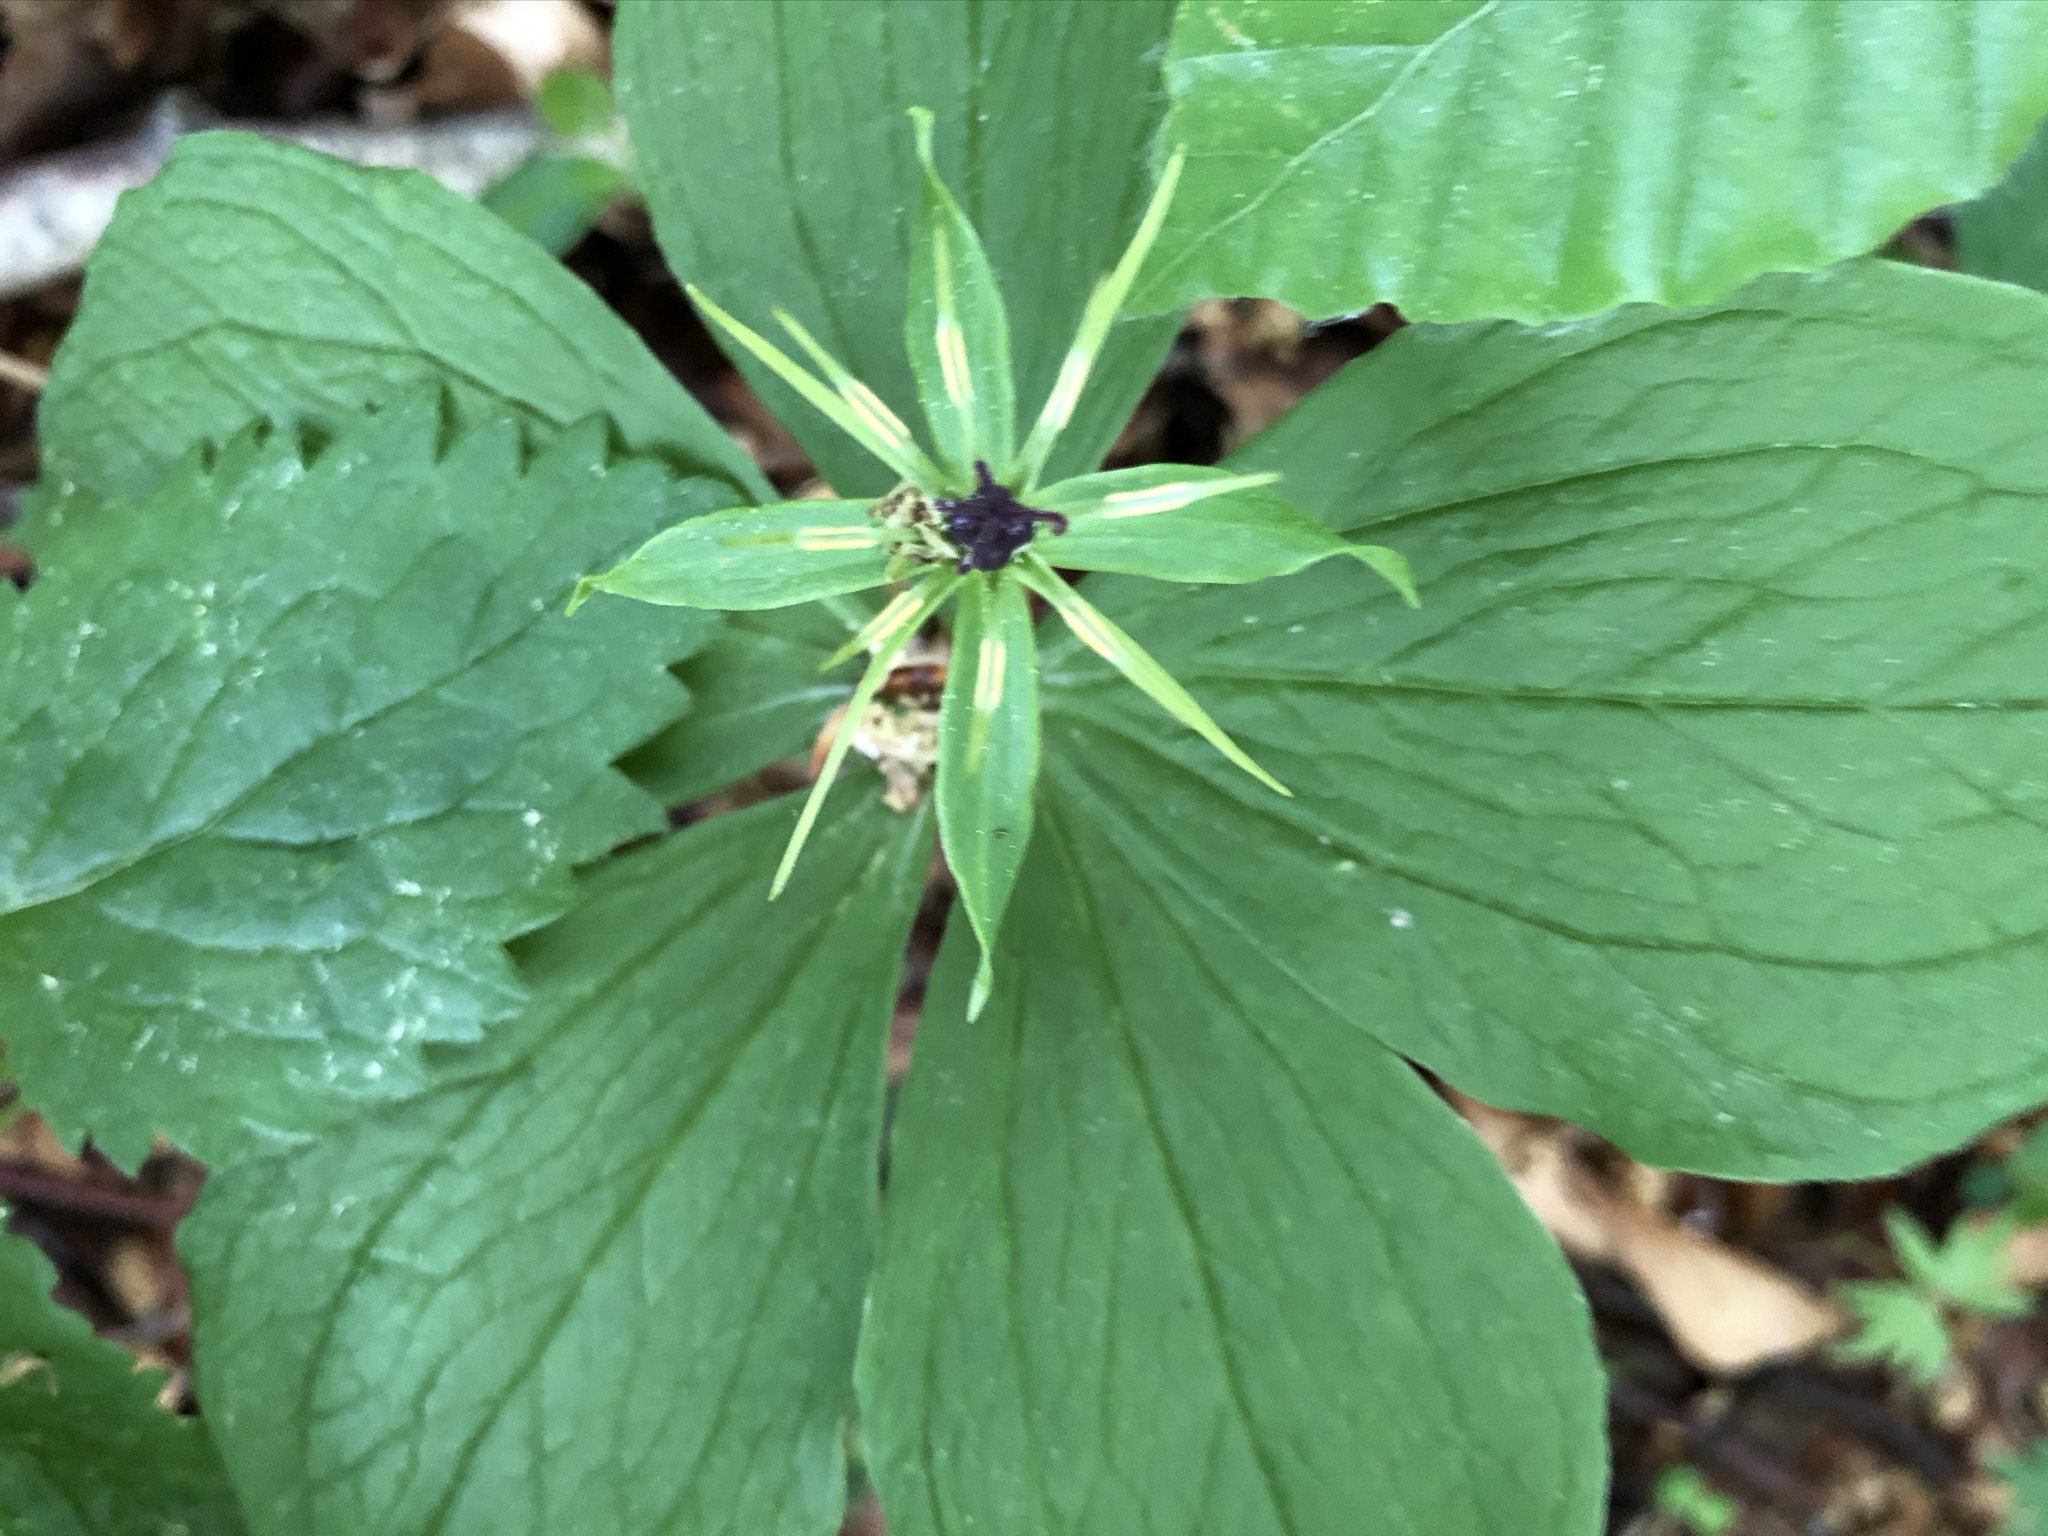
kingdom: Plantae
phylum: Tracheophyta
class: Liliopsida
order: Liliales
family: Melanthiaceae
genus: Paris
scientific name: Paris quadrifolia
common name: Herb-paris
